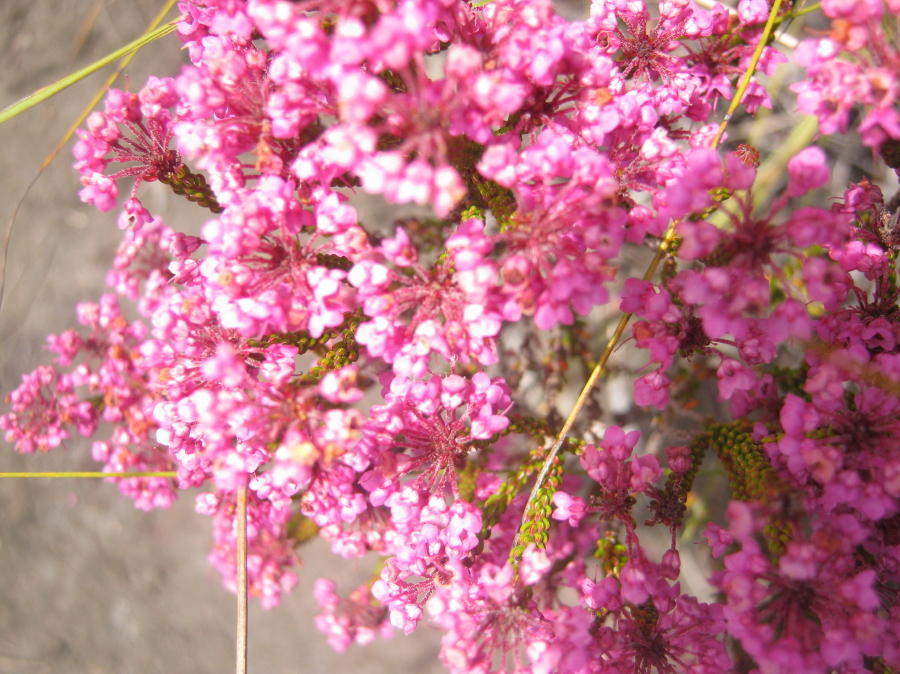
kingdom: Plantae
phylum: Tracheophyta
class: Magnoliopsida
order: Ericales
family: Ericaceae
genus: Erica
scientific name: Erica seriphiifolia
